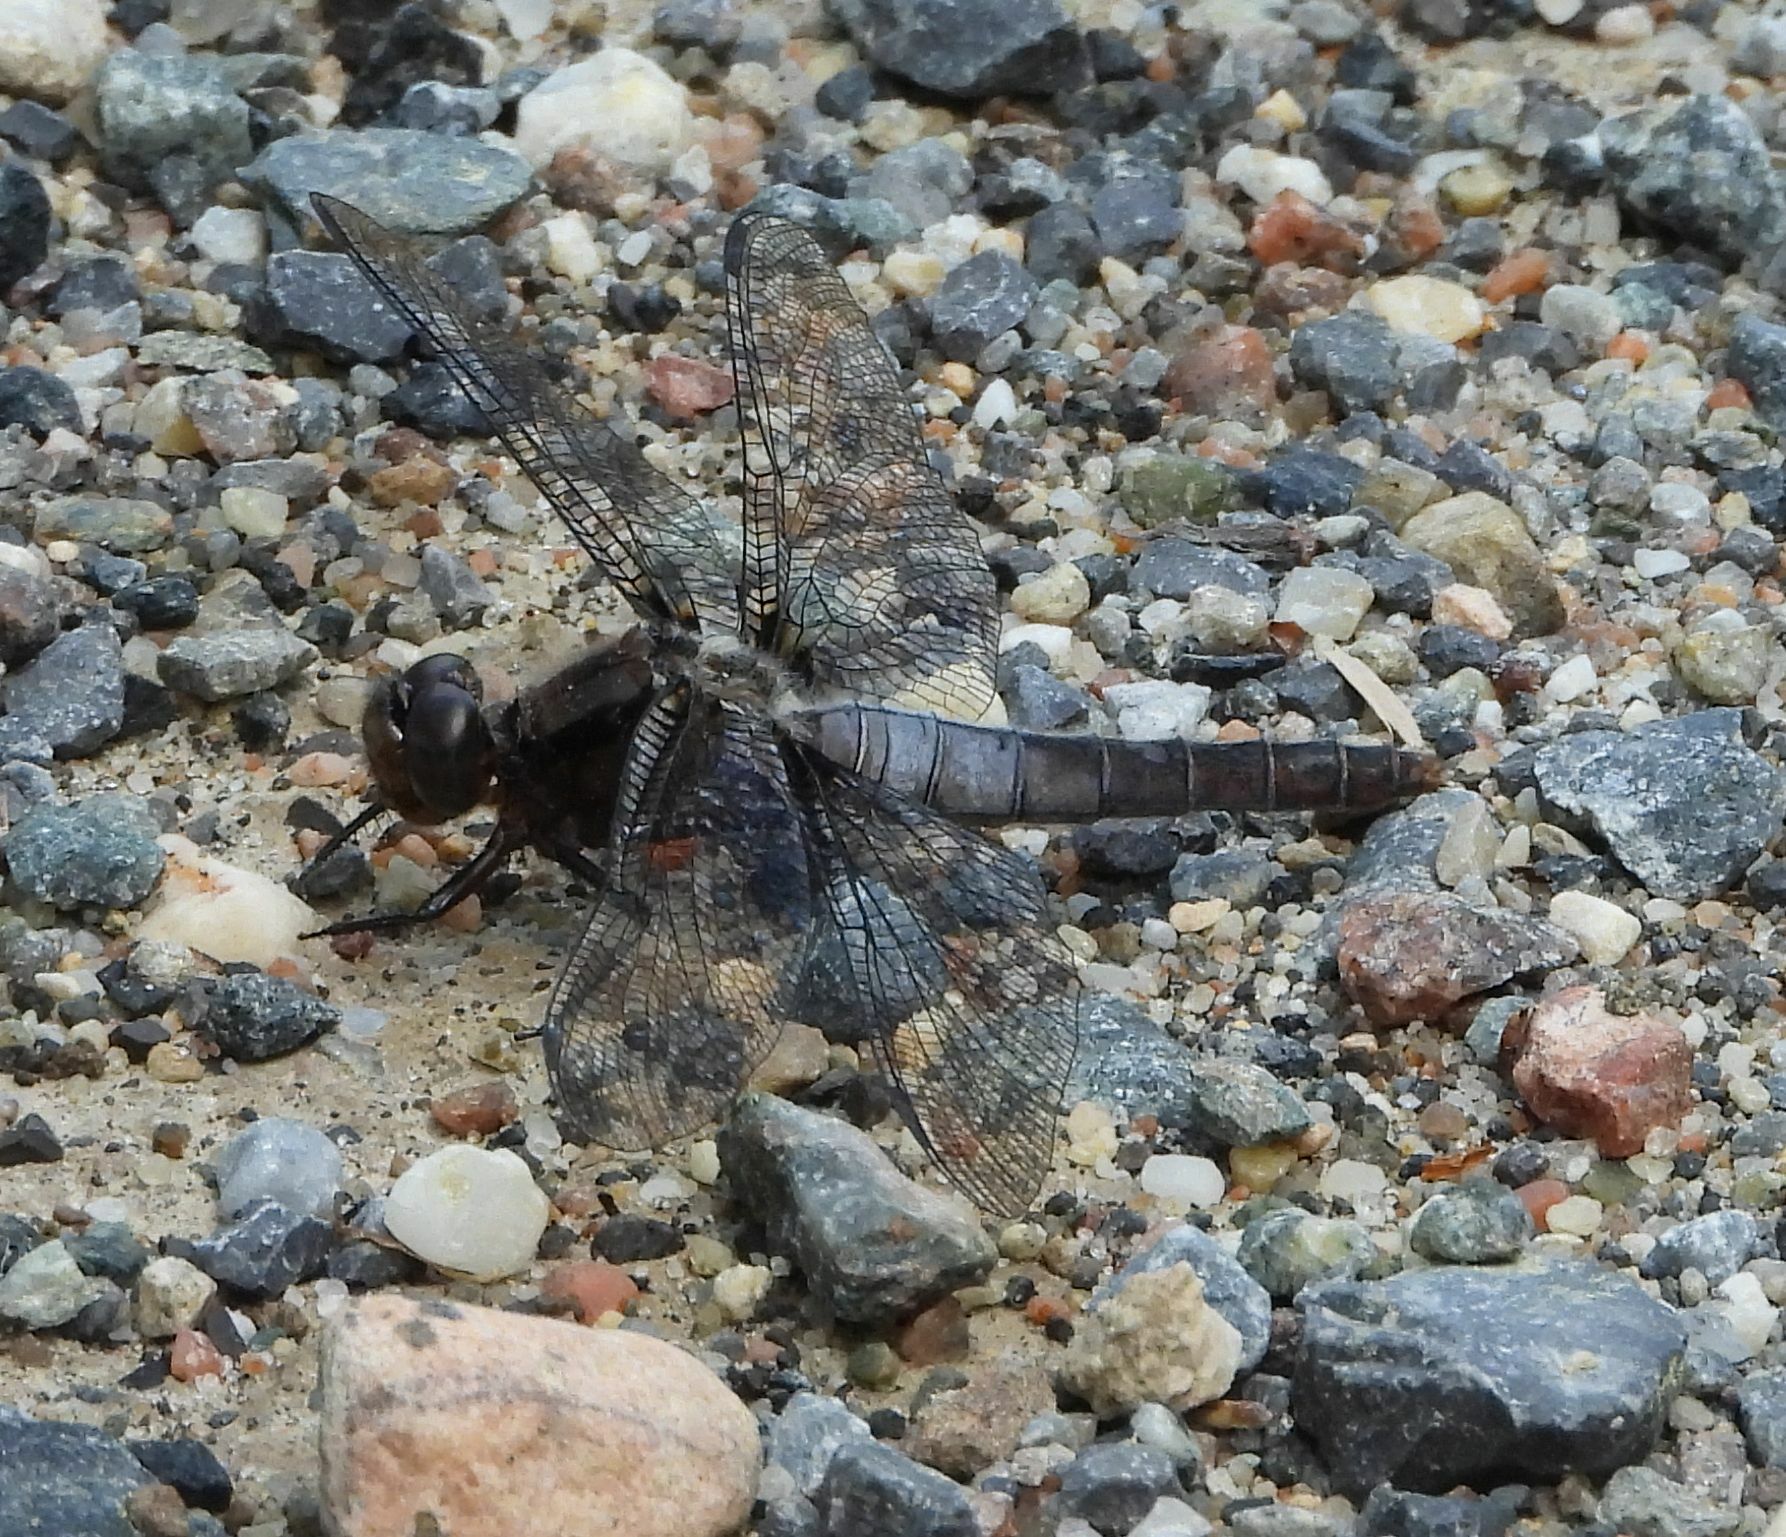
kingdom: Animalia
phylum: Arthropoda
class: Insecta
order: Odonata
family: Libellulidae
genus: Ladona
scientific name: Ladona julia
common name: Chalk-fronted corporal
